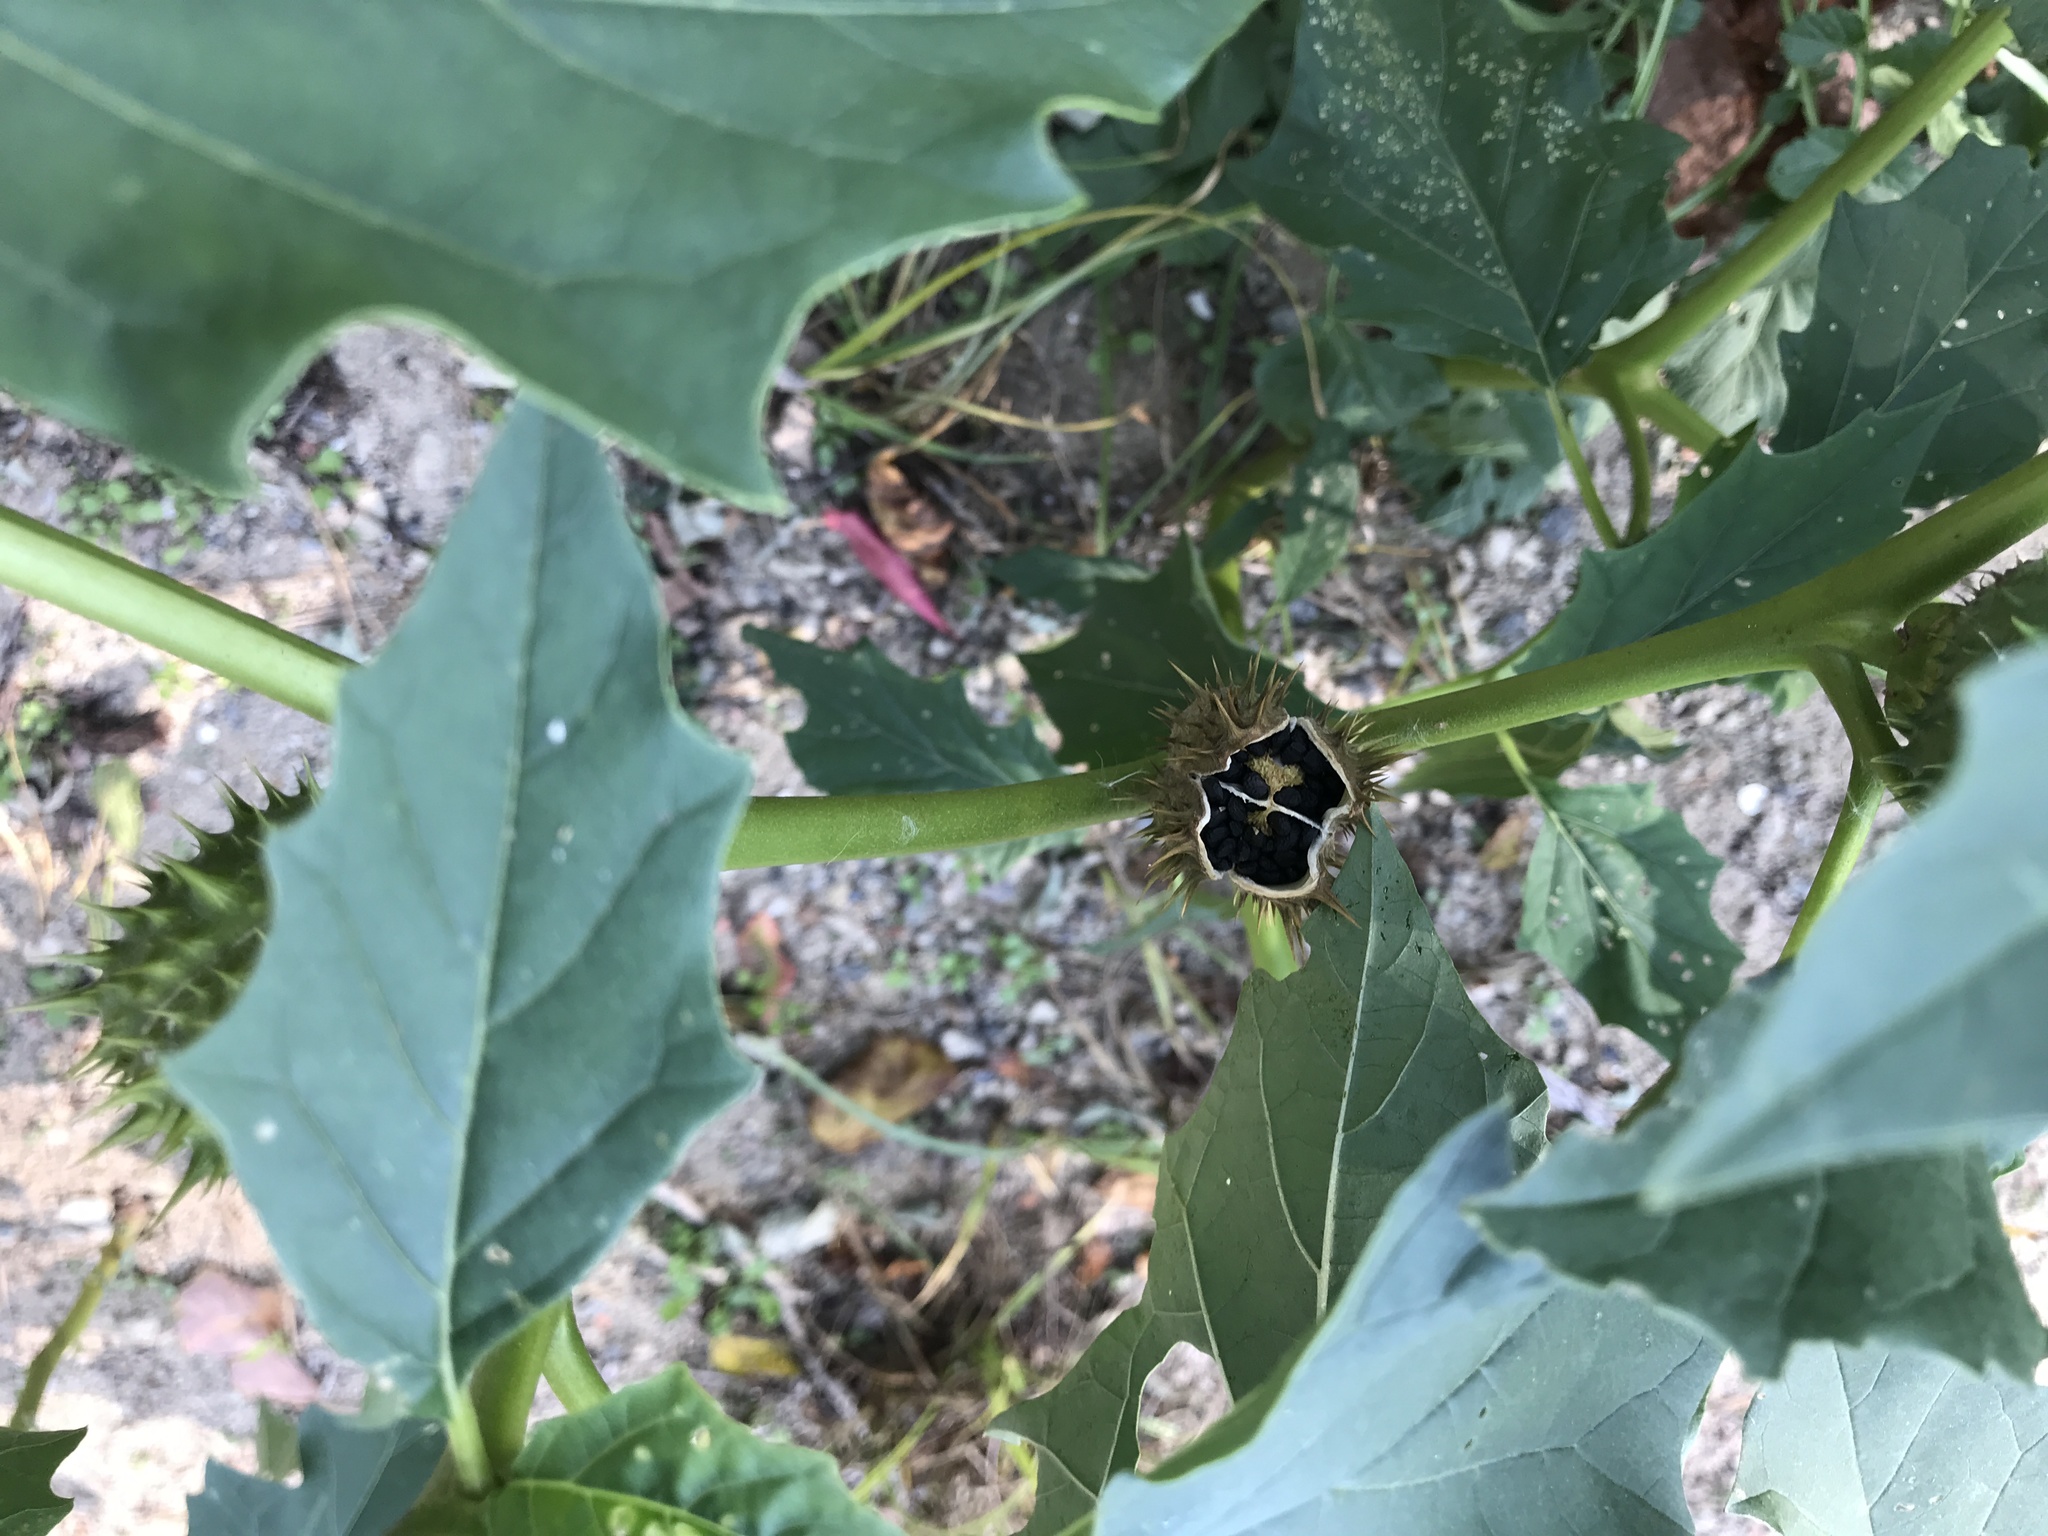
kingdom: Plantae
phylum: Tracheophyta
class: Magnoliopsida
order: Solanales
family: Solanaceae
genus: Datura
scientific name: Datura stramonium
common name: Thorn-apple
